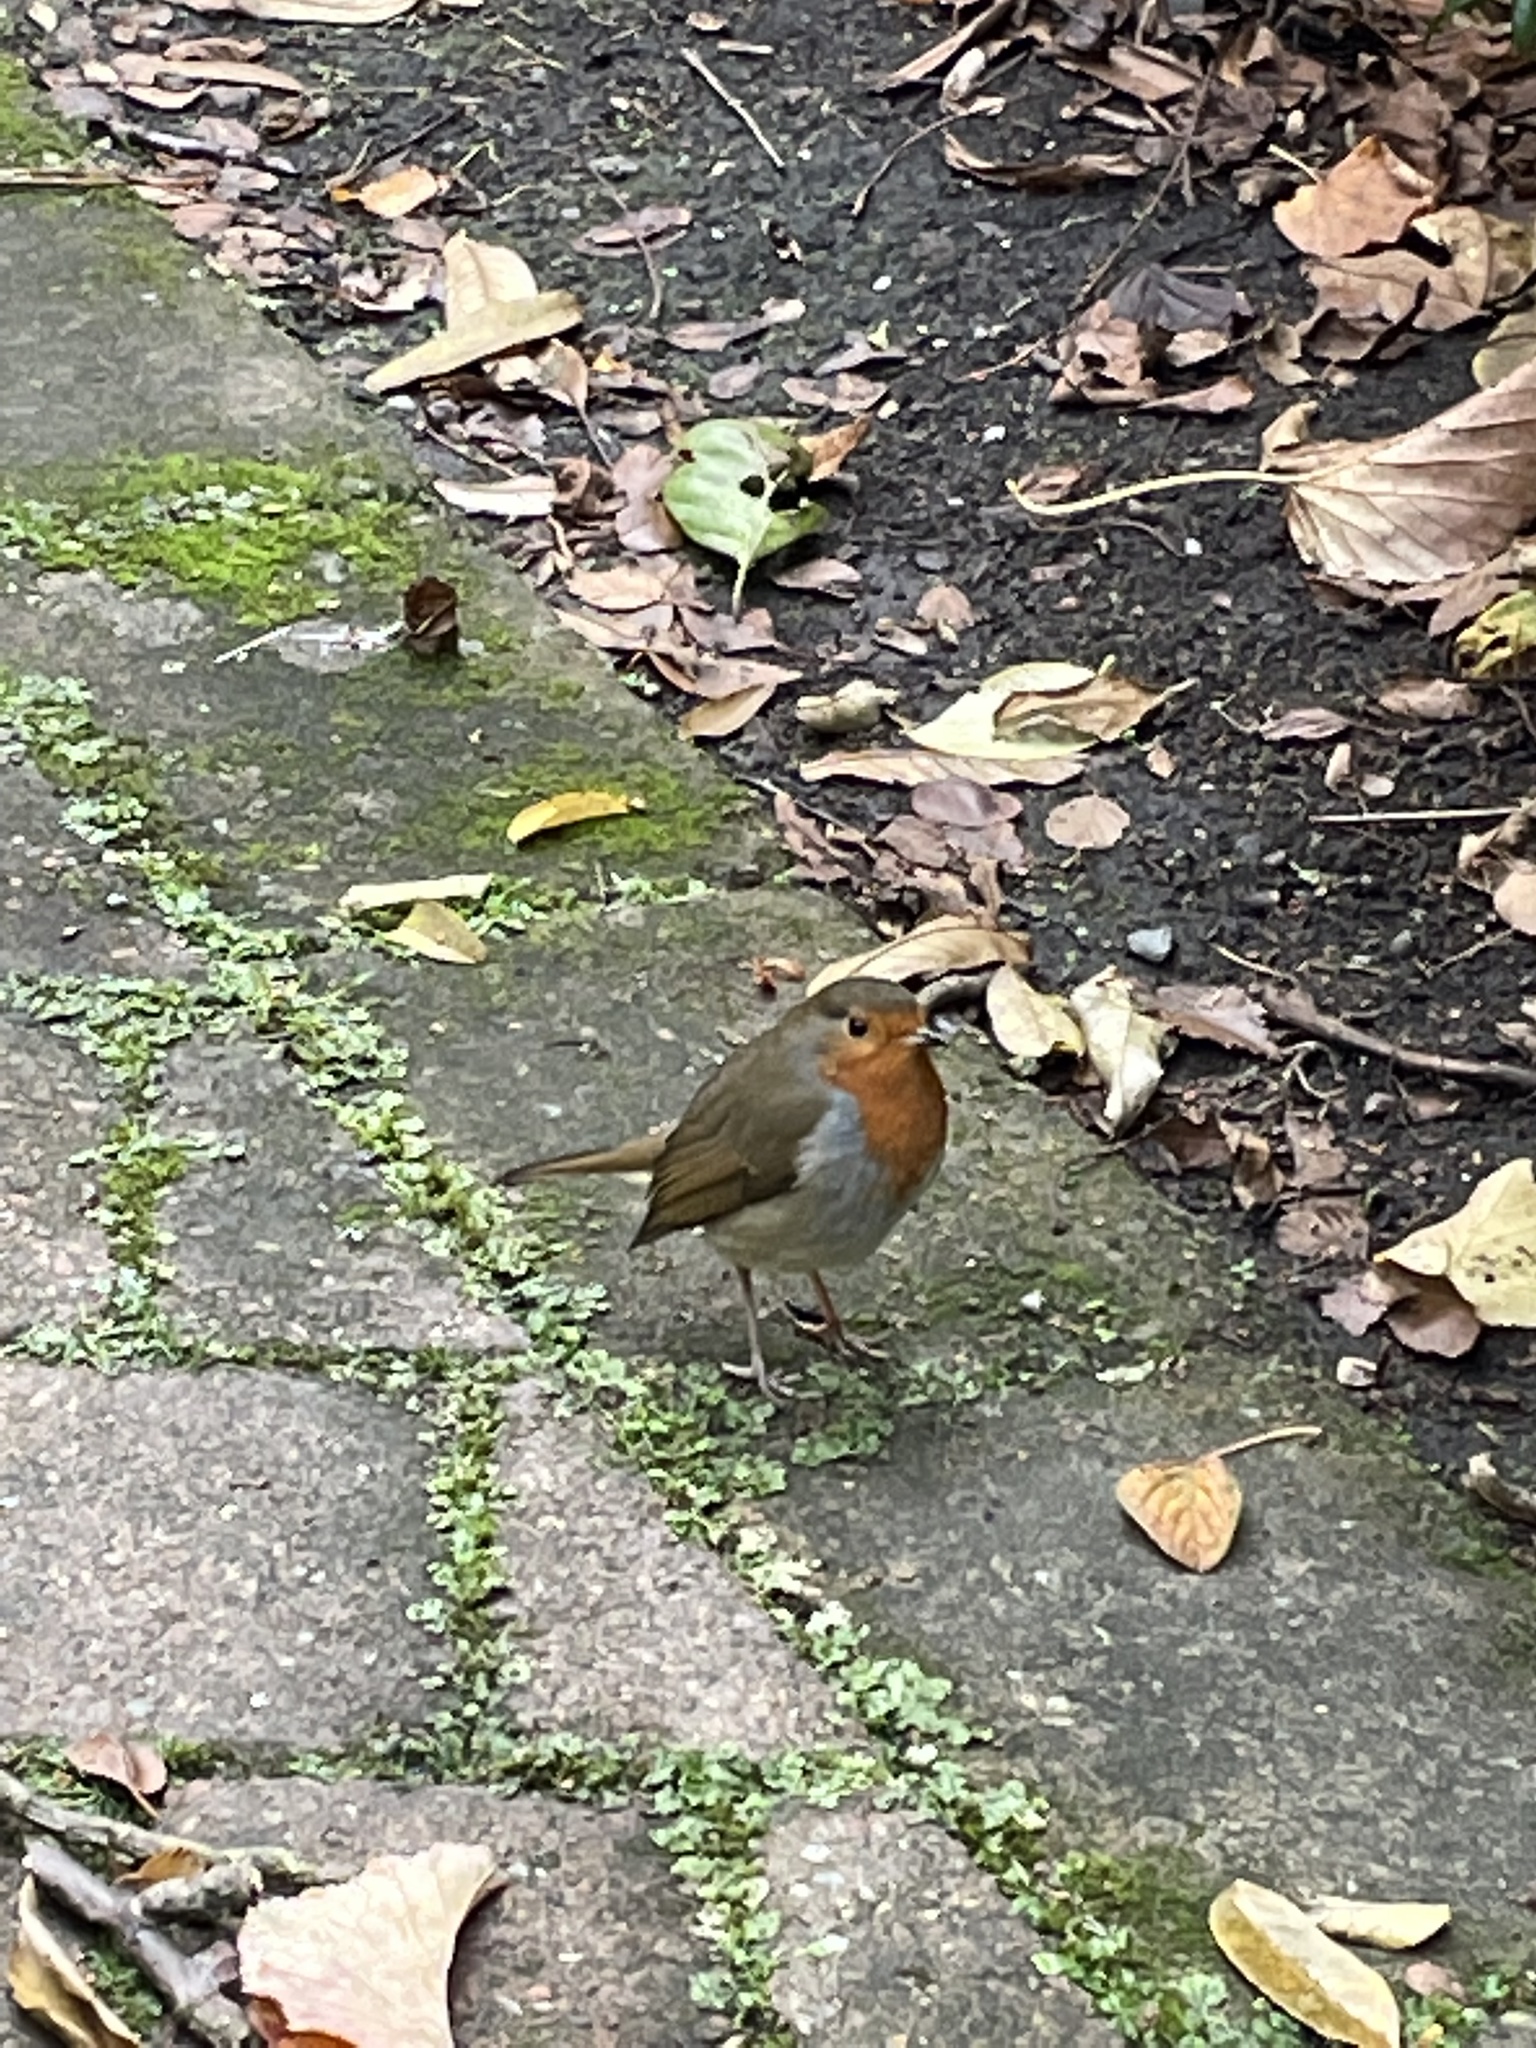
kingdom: Animalia
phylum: Chordata
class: Aves
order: Passeriformes
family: Muscicapidae
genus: Erithacus
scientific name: Erithacus rubecula
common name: European robin
